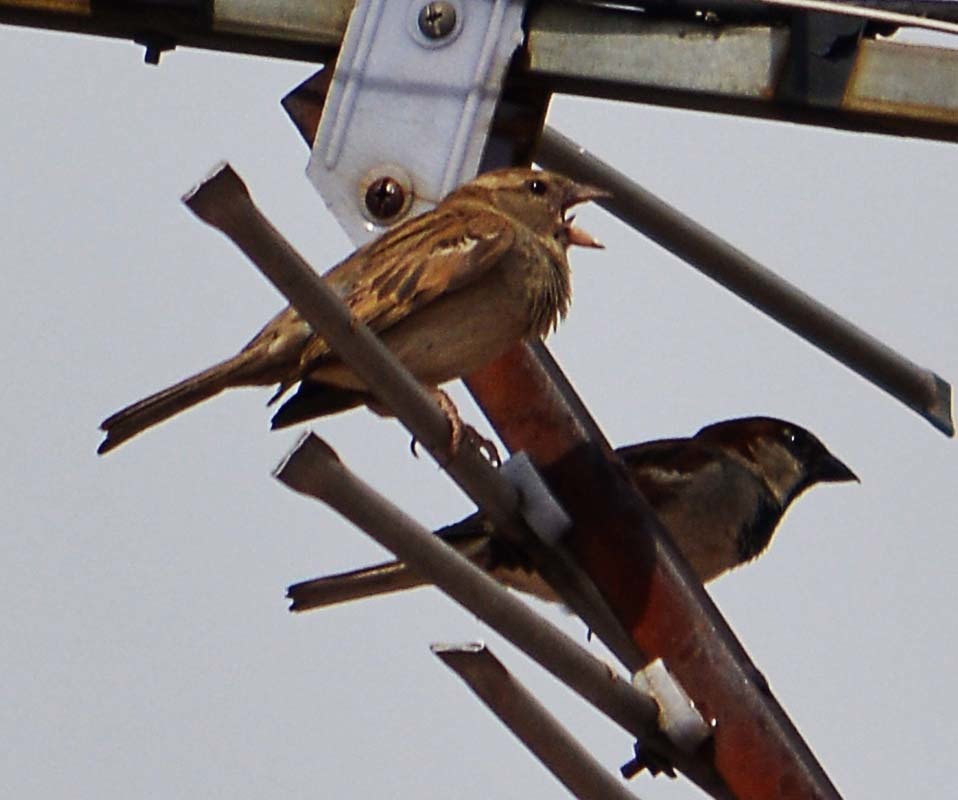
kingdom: Animalia
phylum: Chordata
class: Aves
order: Passeriformes
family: Passeridae
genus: Passer
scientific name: Passer domesticus
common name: House sparrow
